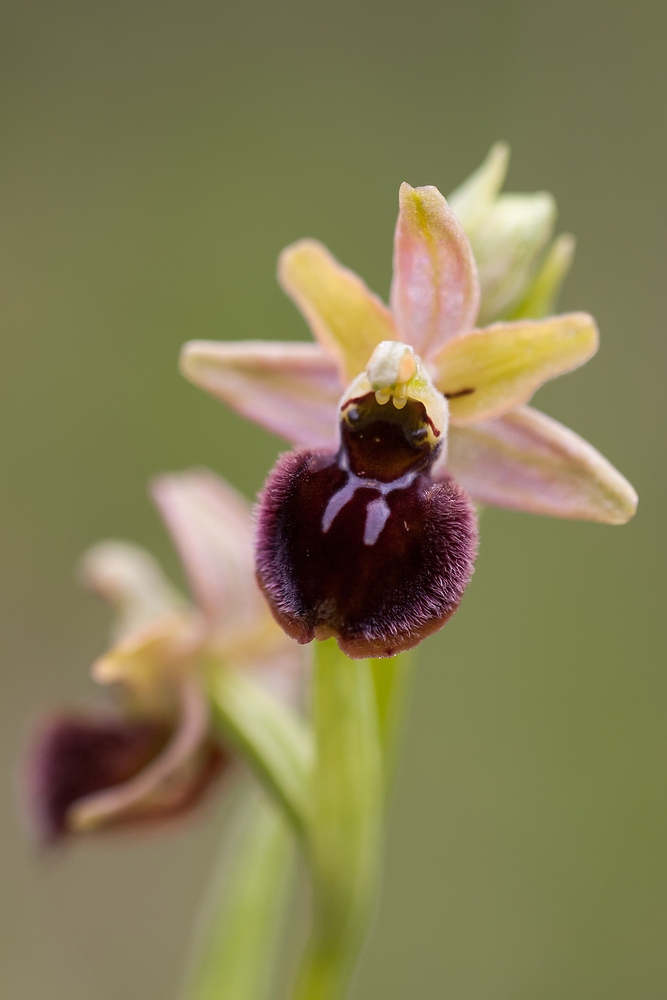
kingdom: Plantae
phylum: Tracheophyta
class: Liliopsida
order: Asparagales
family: Orchidaceae
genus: Ophrys
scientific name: Ophrys arachnitiformis
